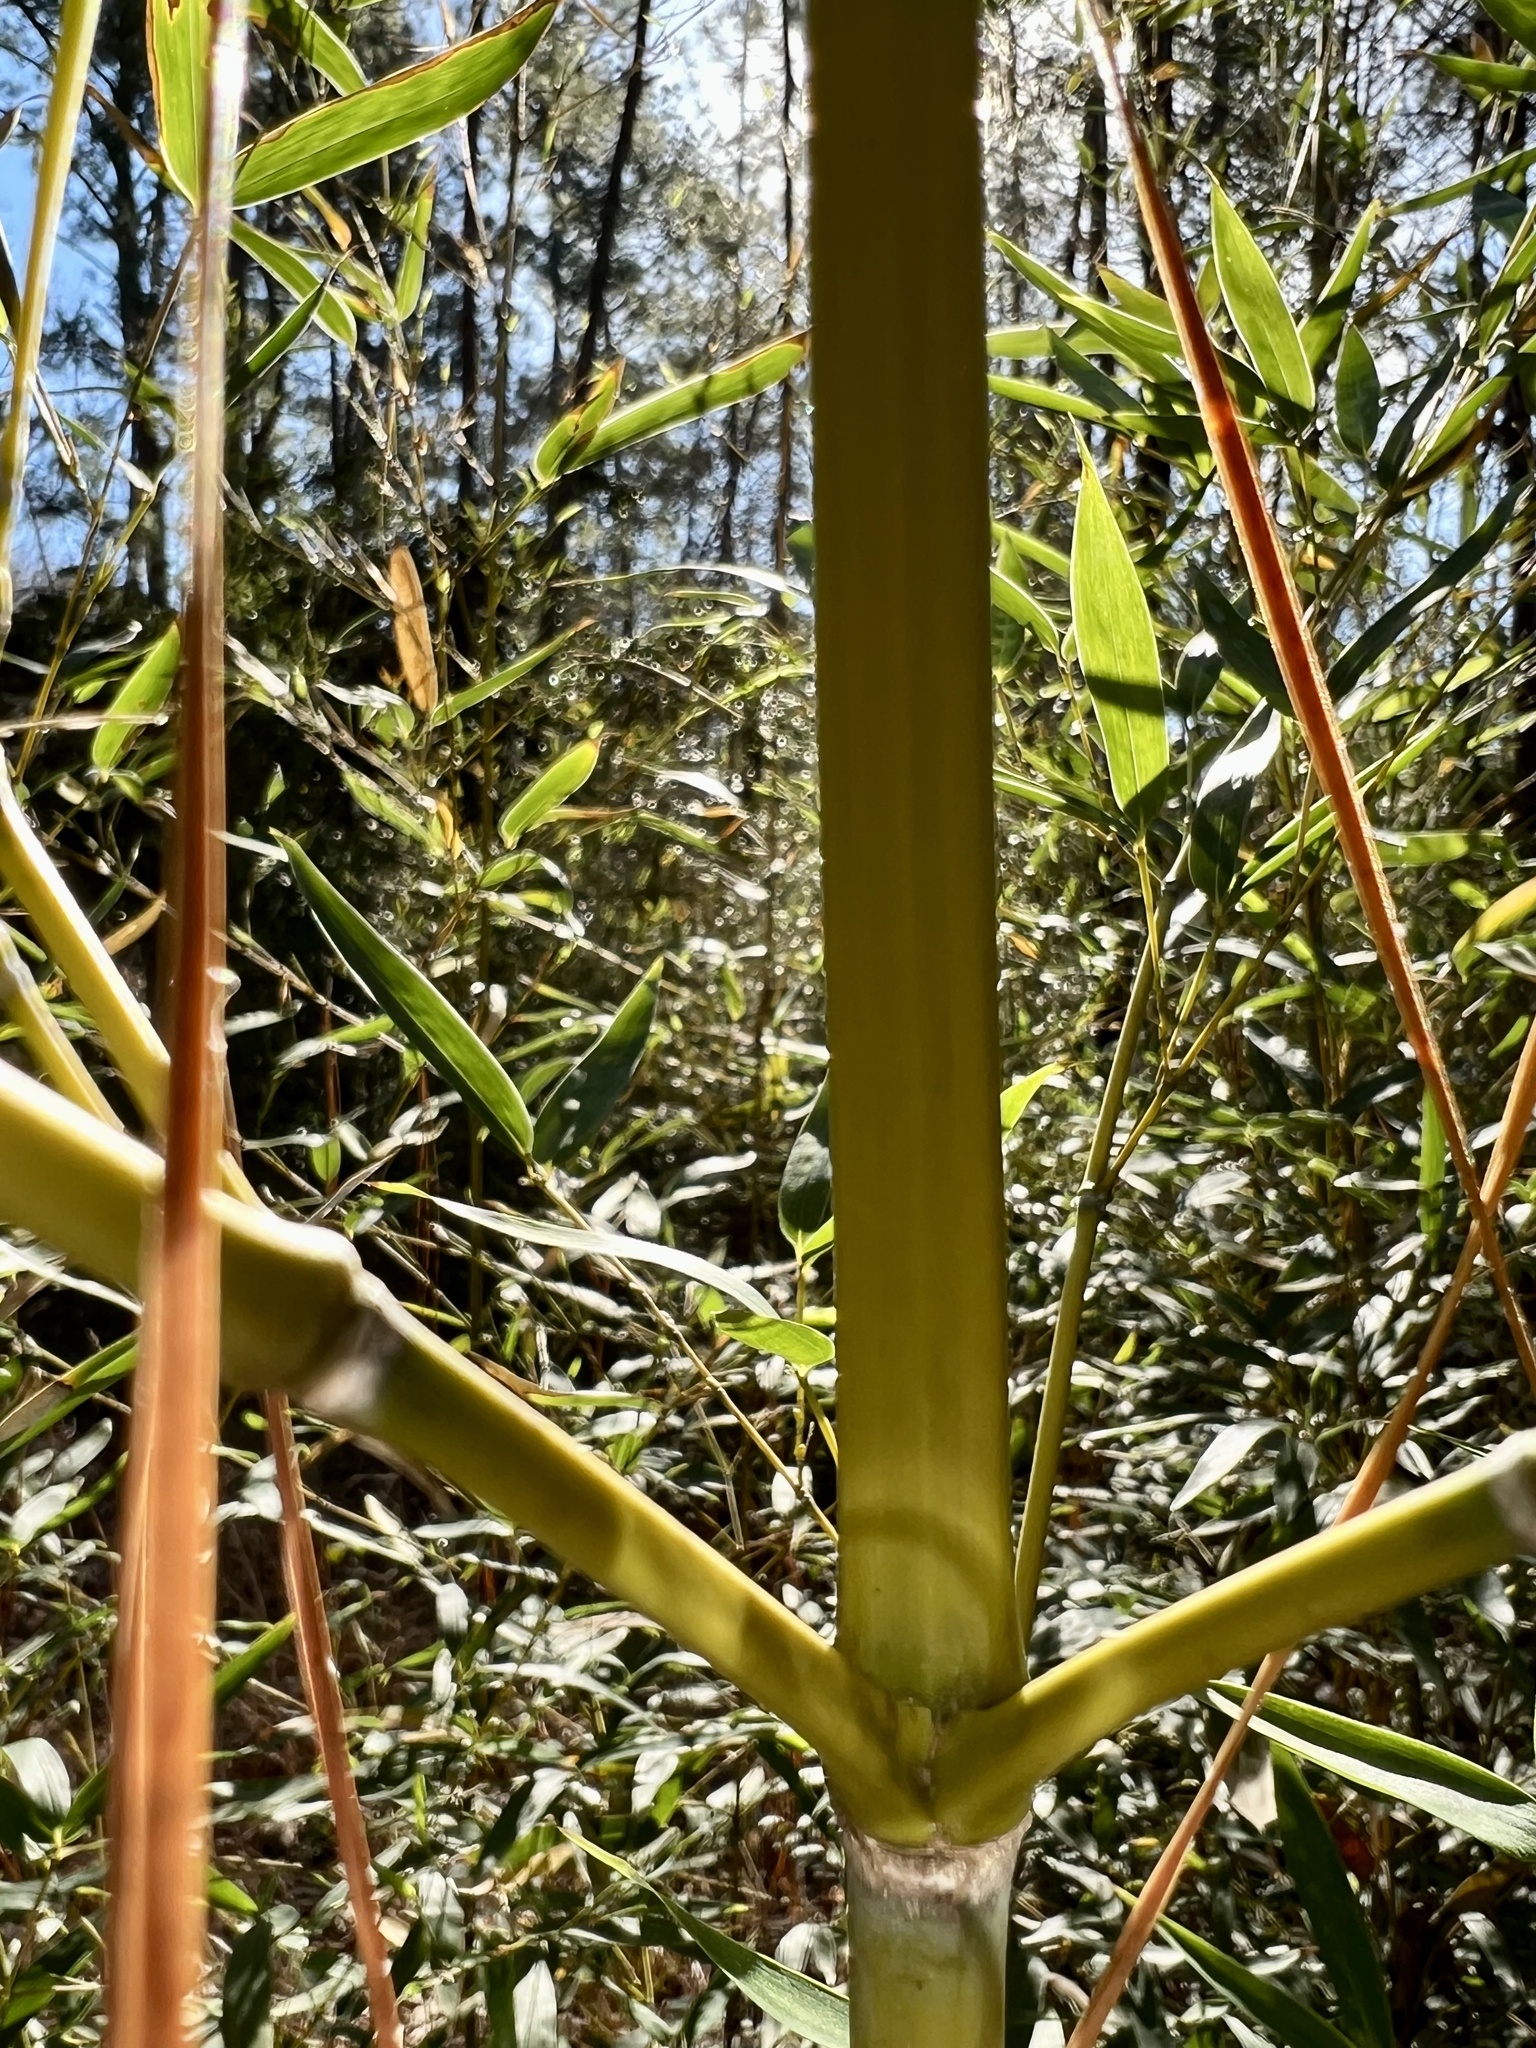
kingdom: Plantae
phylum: Tracheophyta
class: Liliopsida
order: Poales
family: Poaceae
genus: Phyllostachys
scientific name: Phyllostachys aurea
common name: Golden bamboo
